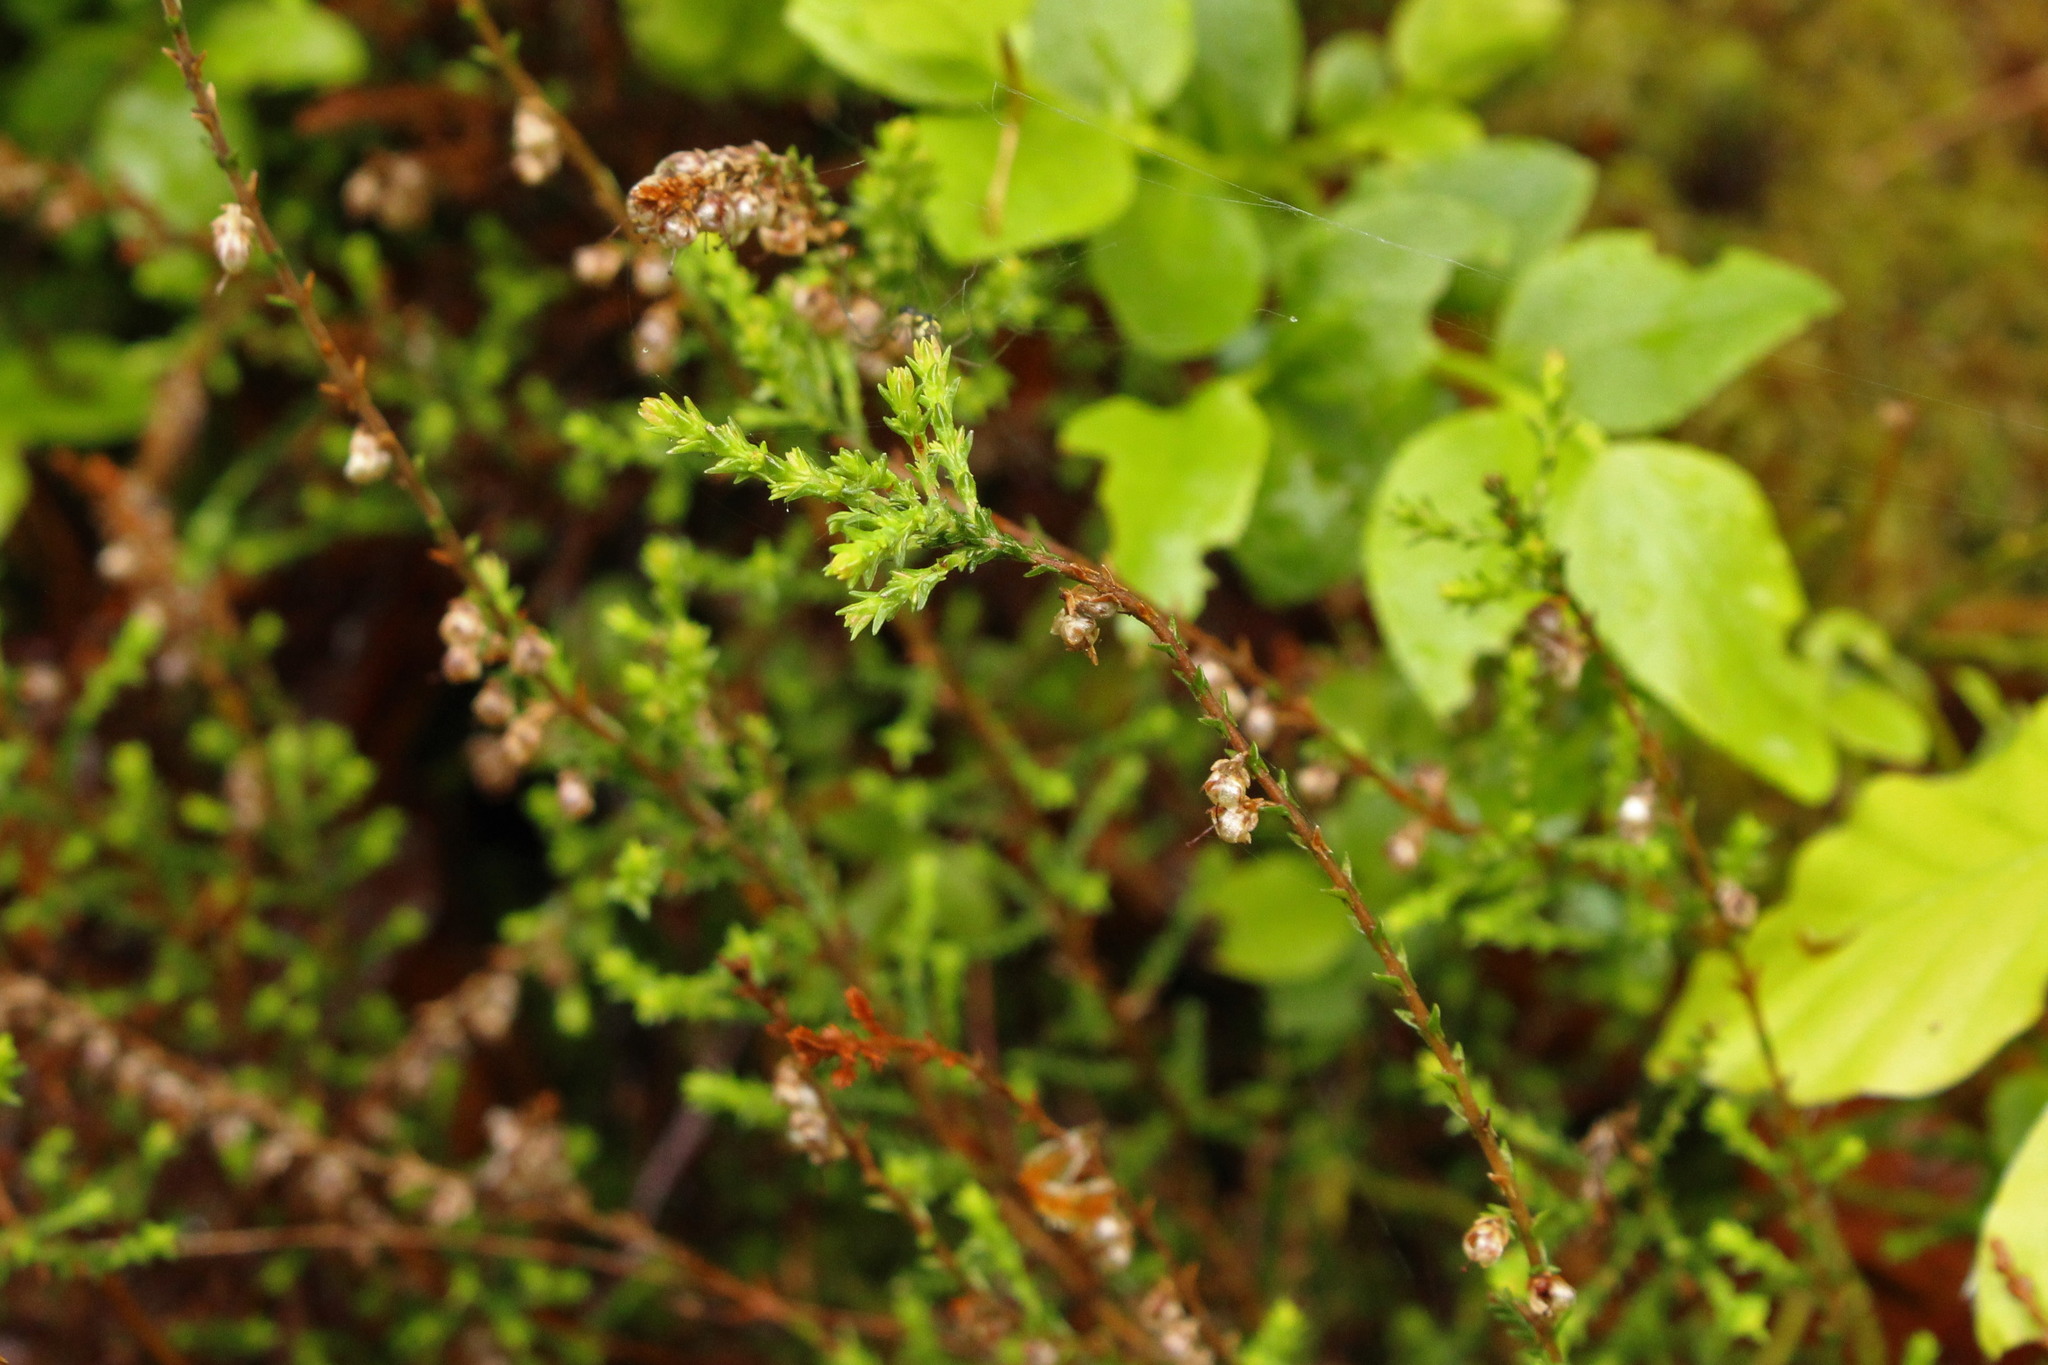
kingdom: Plantae
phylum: Tracheophyta
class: Magnoliopsida
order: Ericales
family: Ericaceae
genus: Calluna
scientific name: Calluna vulgaris
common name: Heather
